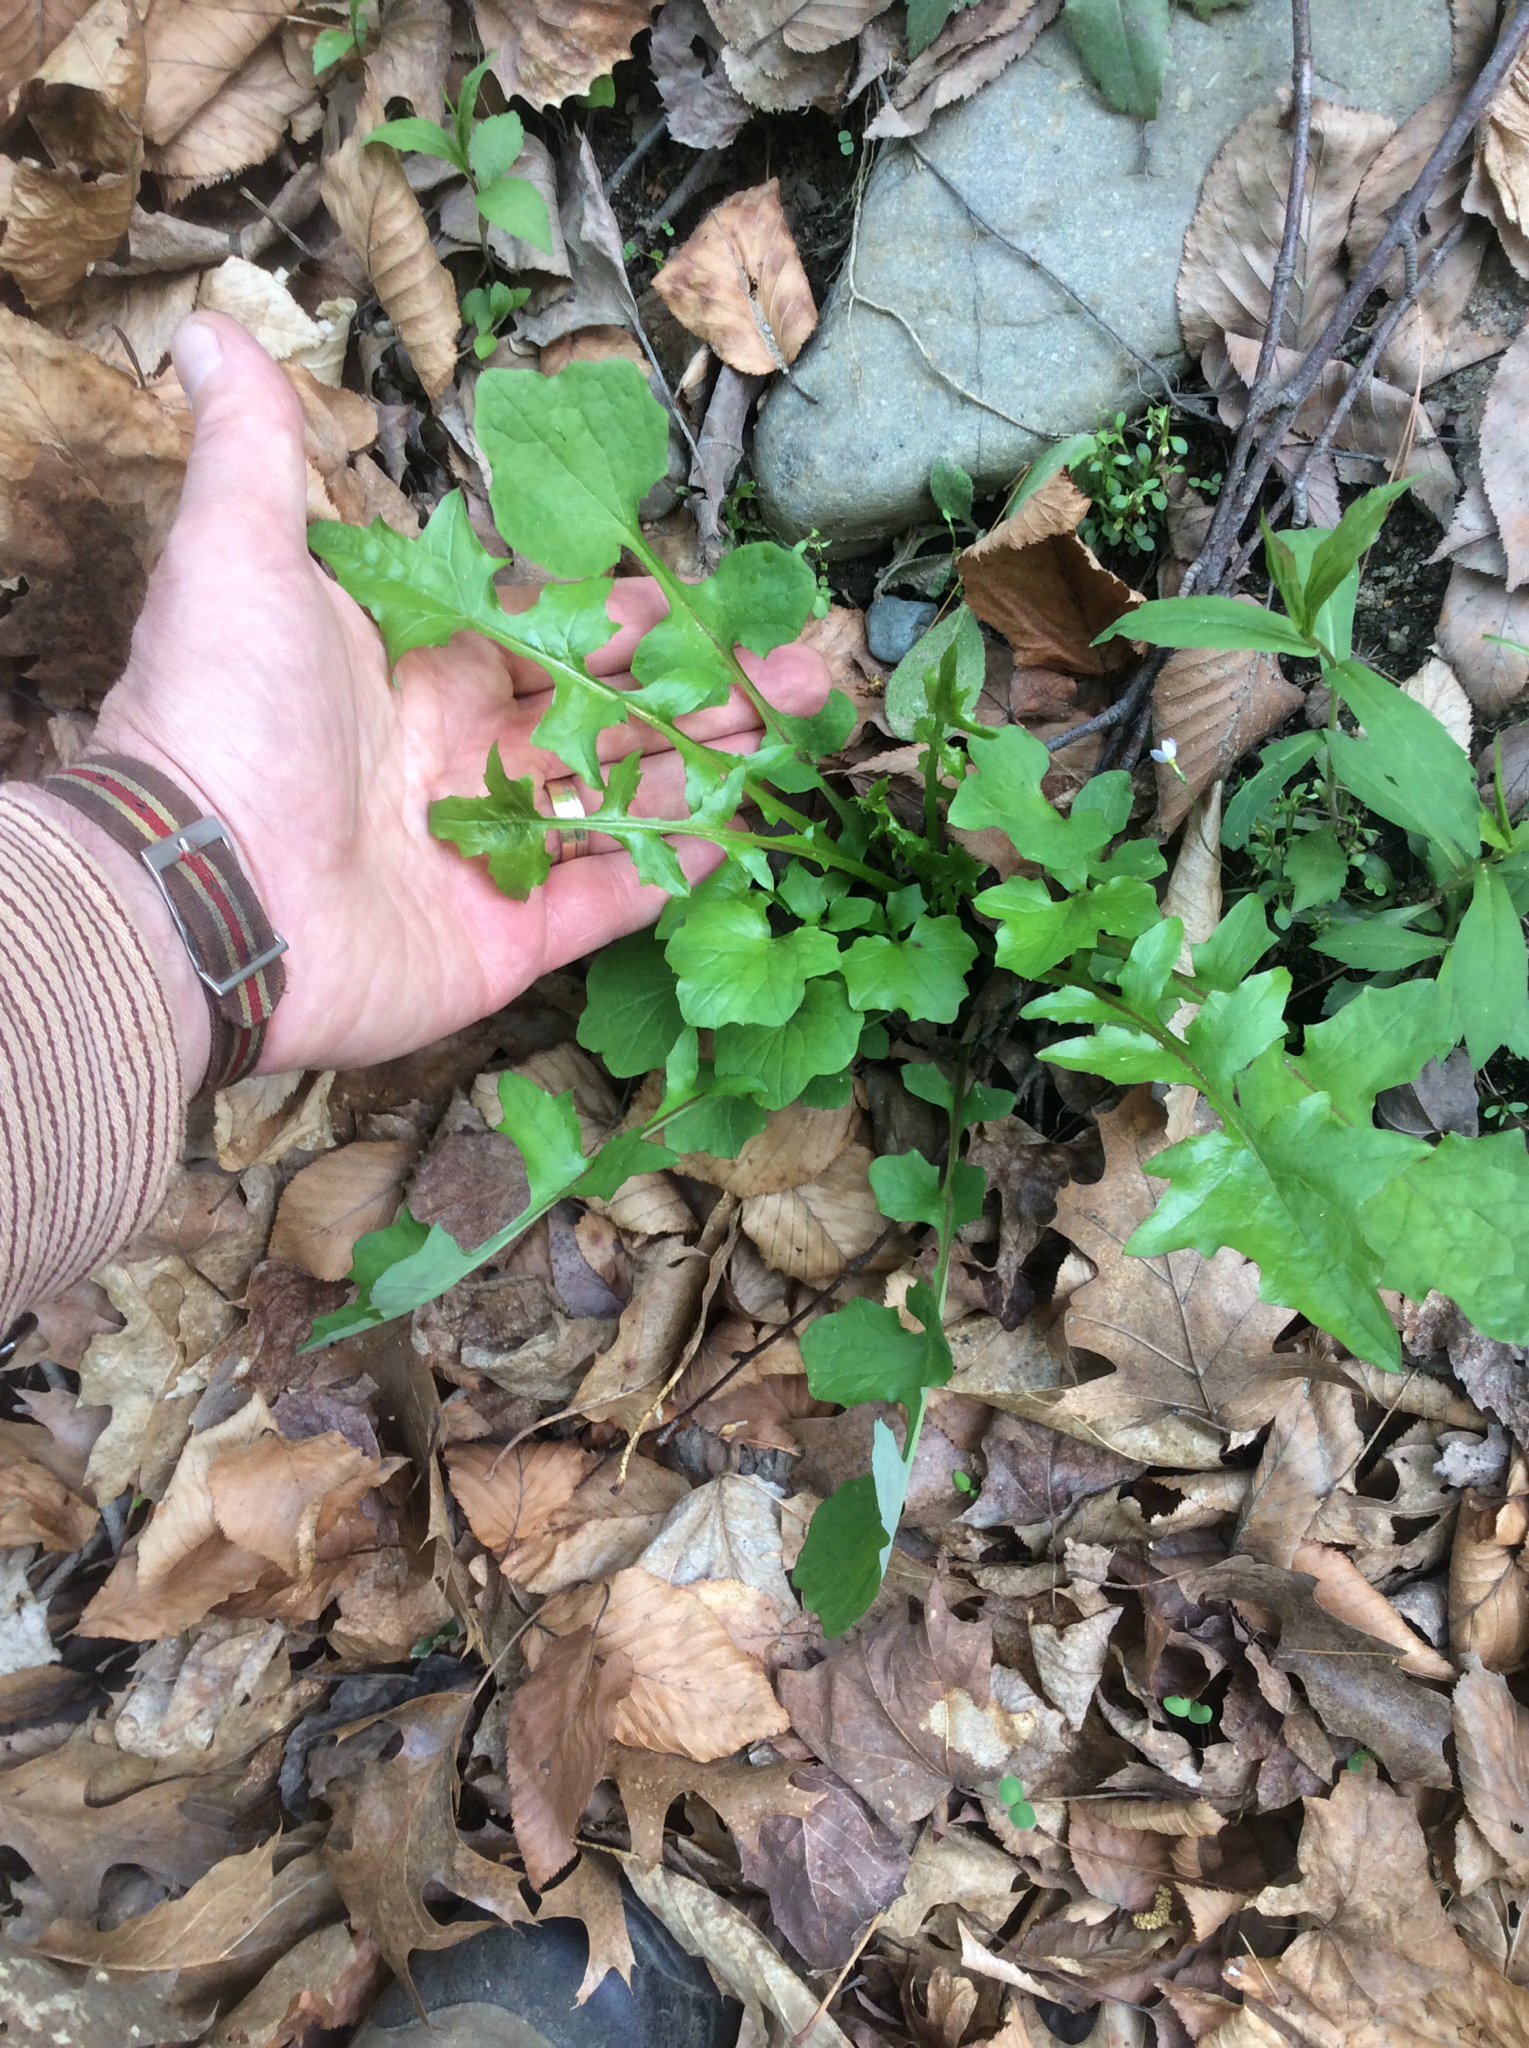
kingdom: Plantae
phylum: Tracheophyta
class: Magnoliopsida
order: Asterales
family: Asteraceae
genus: Mycelis
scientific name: Mycelis muralis
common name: Wall lettuce
